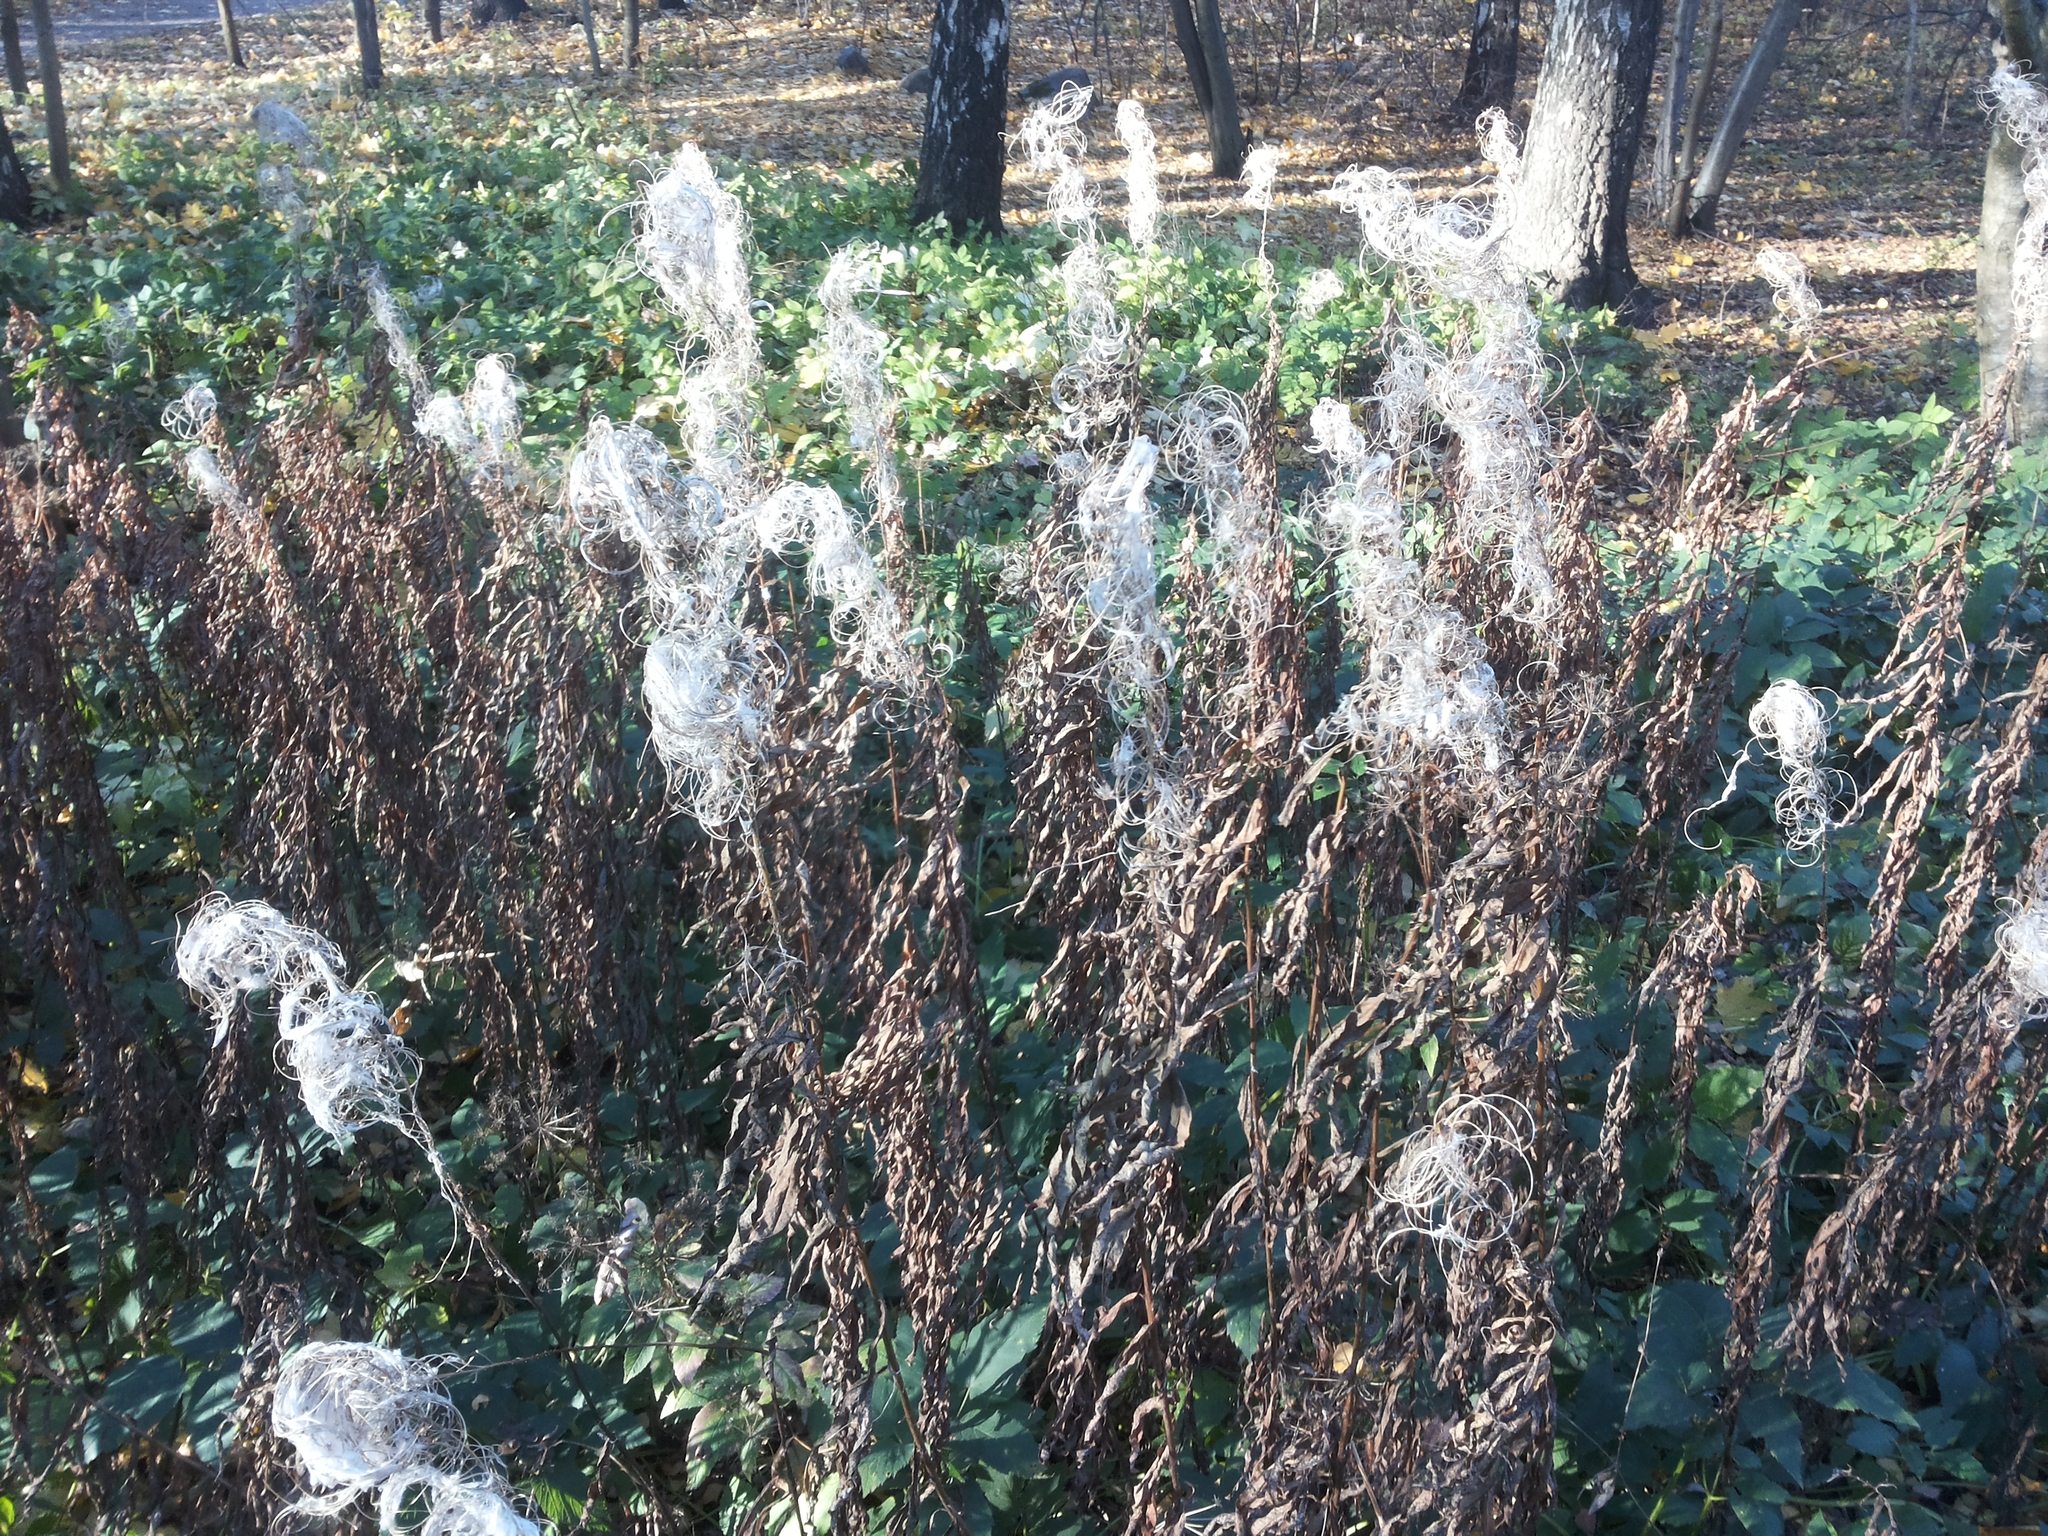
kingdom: Plantae
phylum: Tracheophyta
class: Magnoliopsida
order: Myrtales
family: Onagraceae
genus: Chamaenerion
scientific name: Chamaenerion angustifolium
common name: Fireweed
